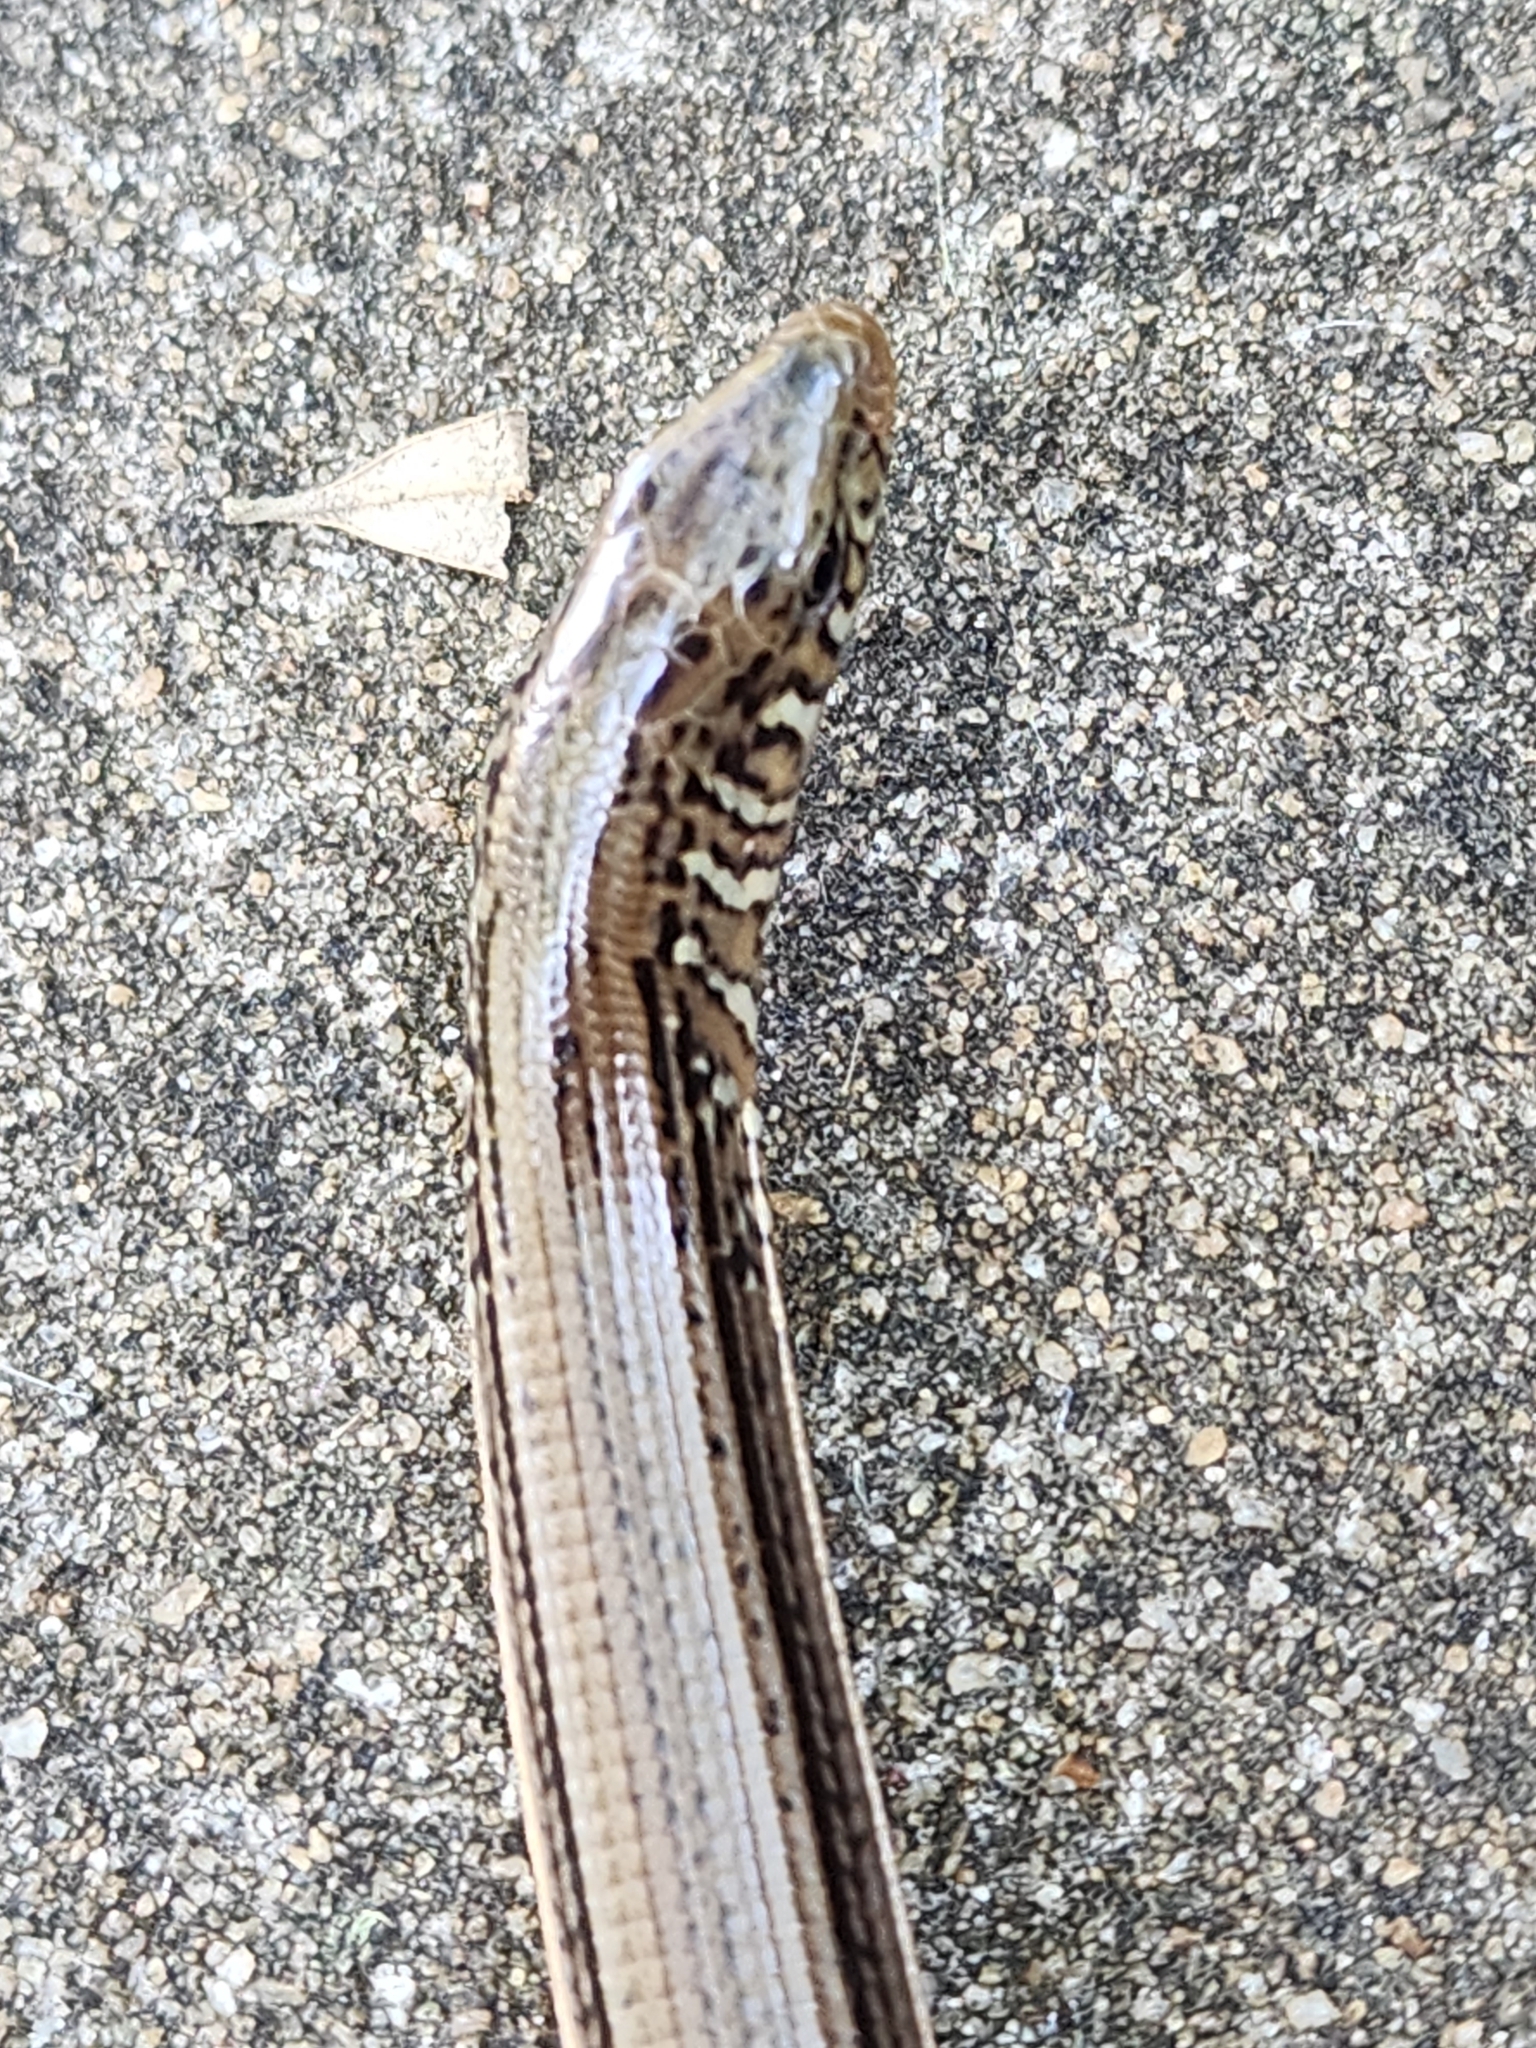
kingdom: Animalia
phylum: Chordata
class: Squamata
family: Anguidae
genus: Ophisaurus
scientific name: Ophisaurus ventralis
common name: Eastern glass lizard
